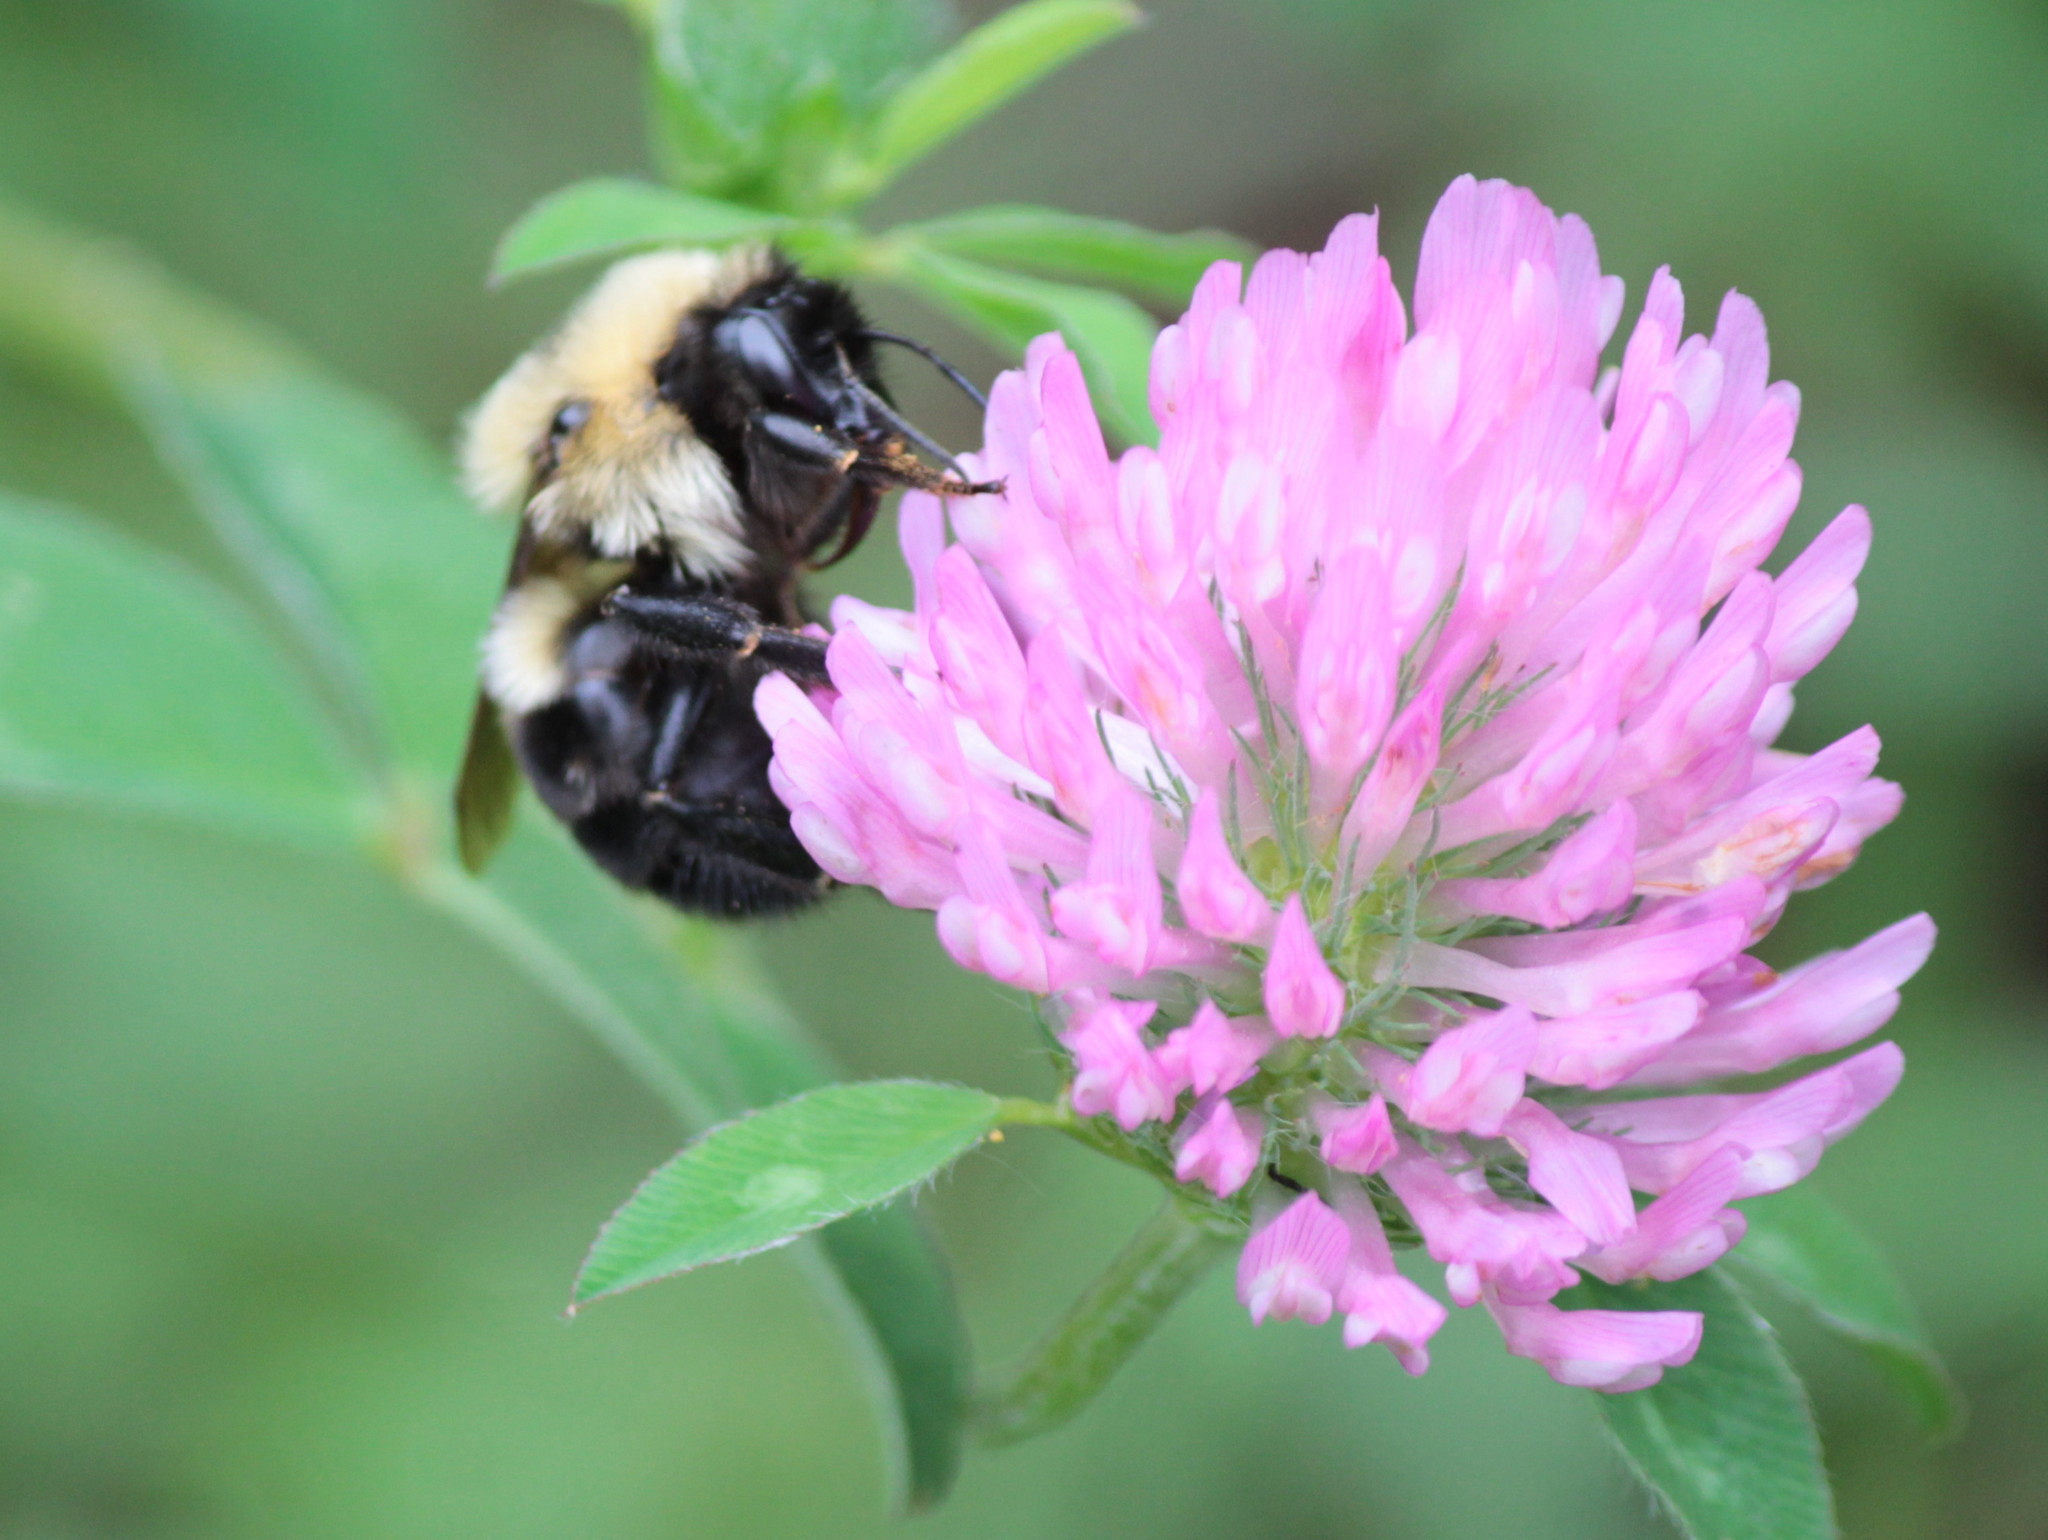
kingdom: Animalia
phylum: Arthropoda
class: Insecta
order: Hymenoptera
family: Apidae
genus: Bombus
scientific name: Bombus bimaculatus
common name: Two-spotted bumble bee
